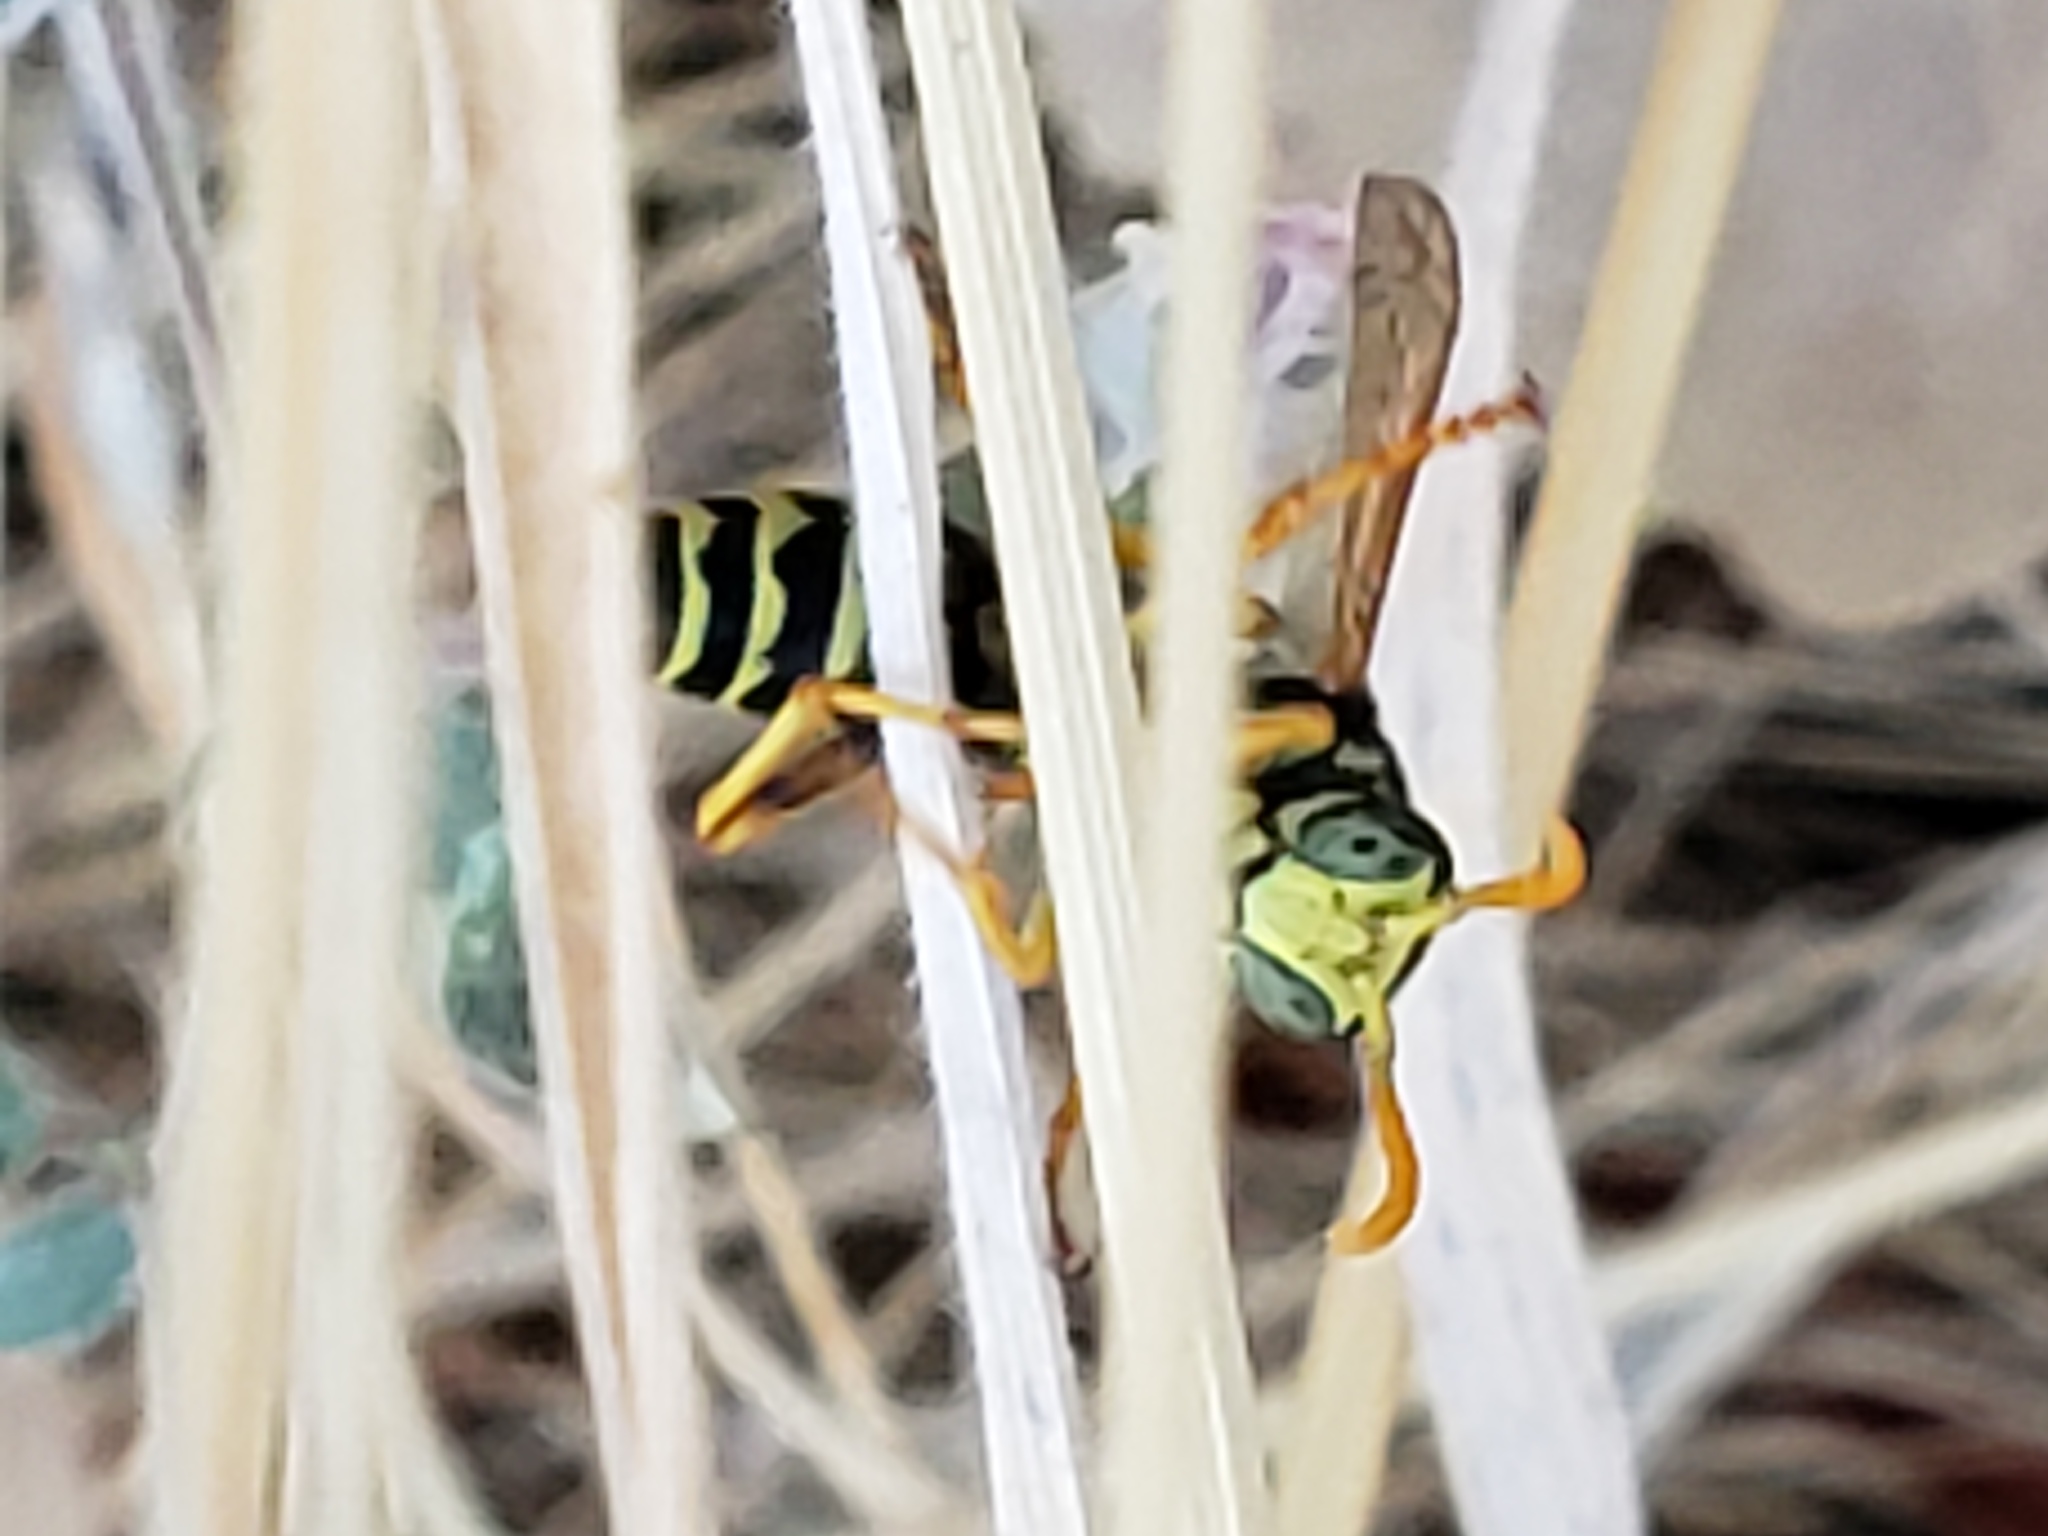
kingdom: Animalia
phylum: Arthropoda
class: Insecta
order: Hymenoptera
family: Eumenidae
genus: Polistes
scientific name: Polistes dominula
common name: Paper wasp
